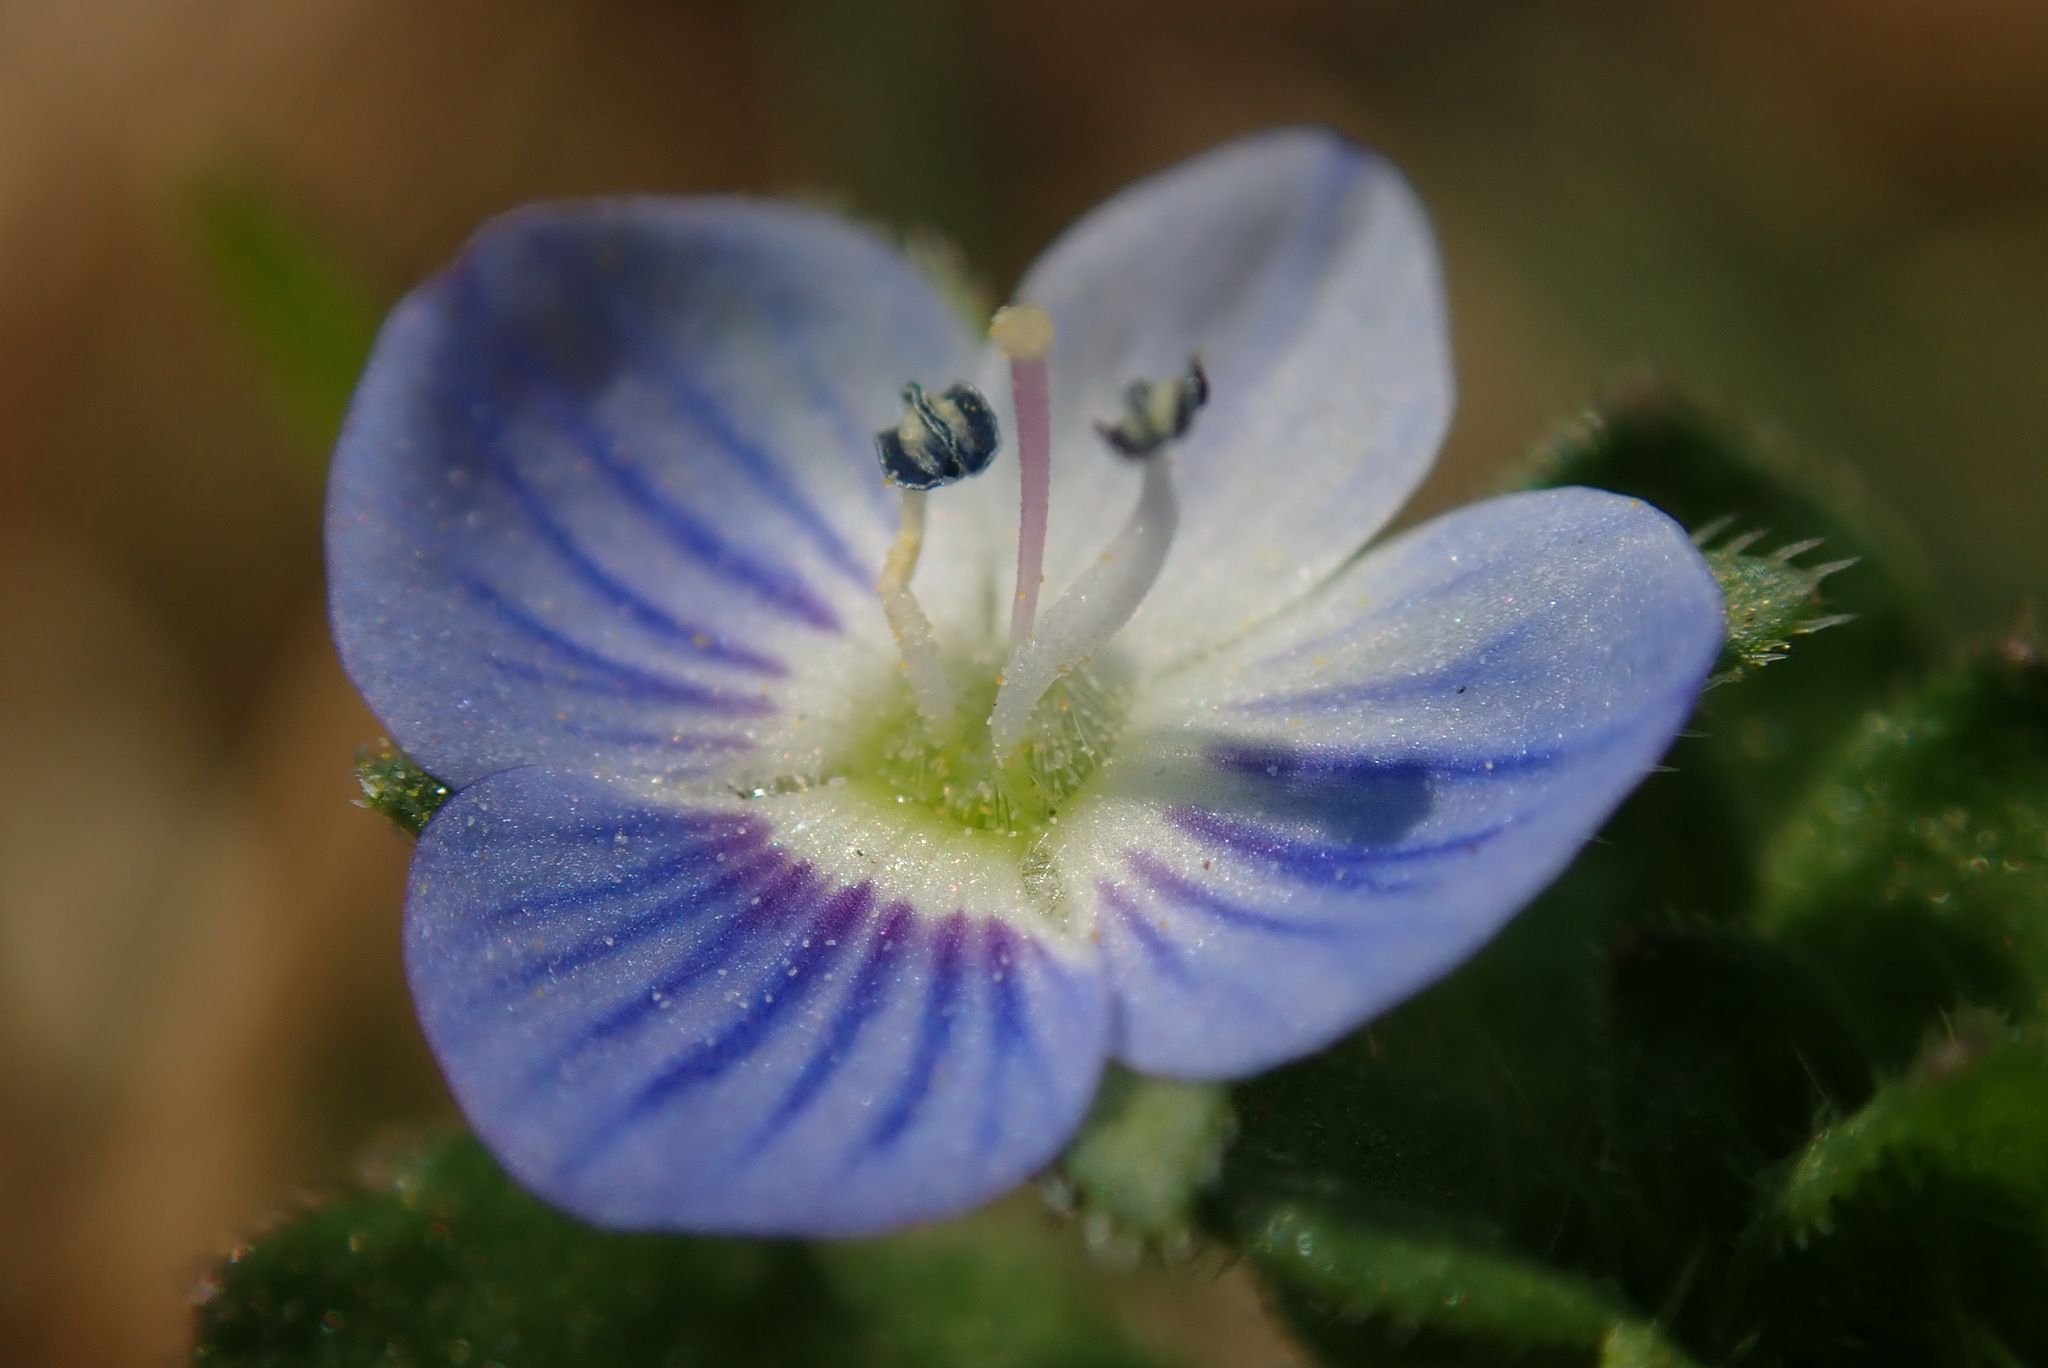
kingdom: Plantae
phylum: Tracheophyta
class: Magnoliopsida
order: Lamiales
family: Plantaginaceae
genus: Veronica
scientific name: Veronica persica
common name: Common field-speedwell
